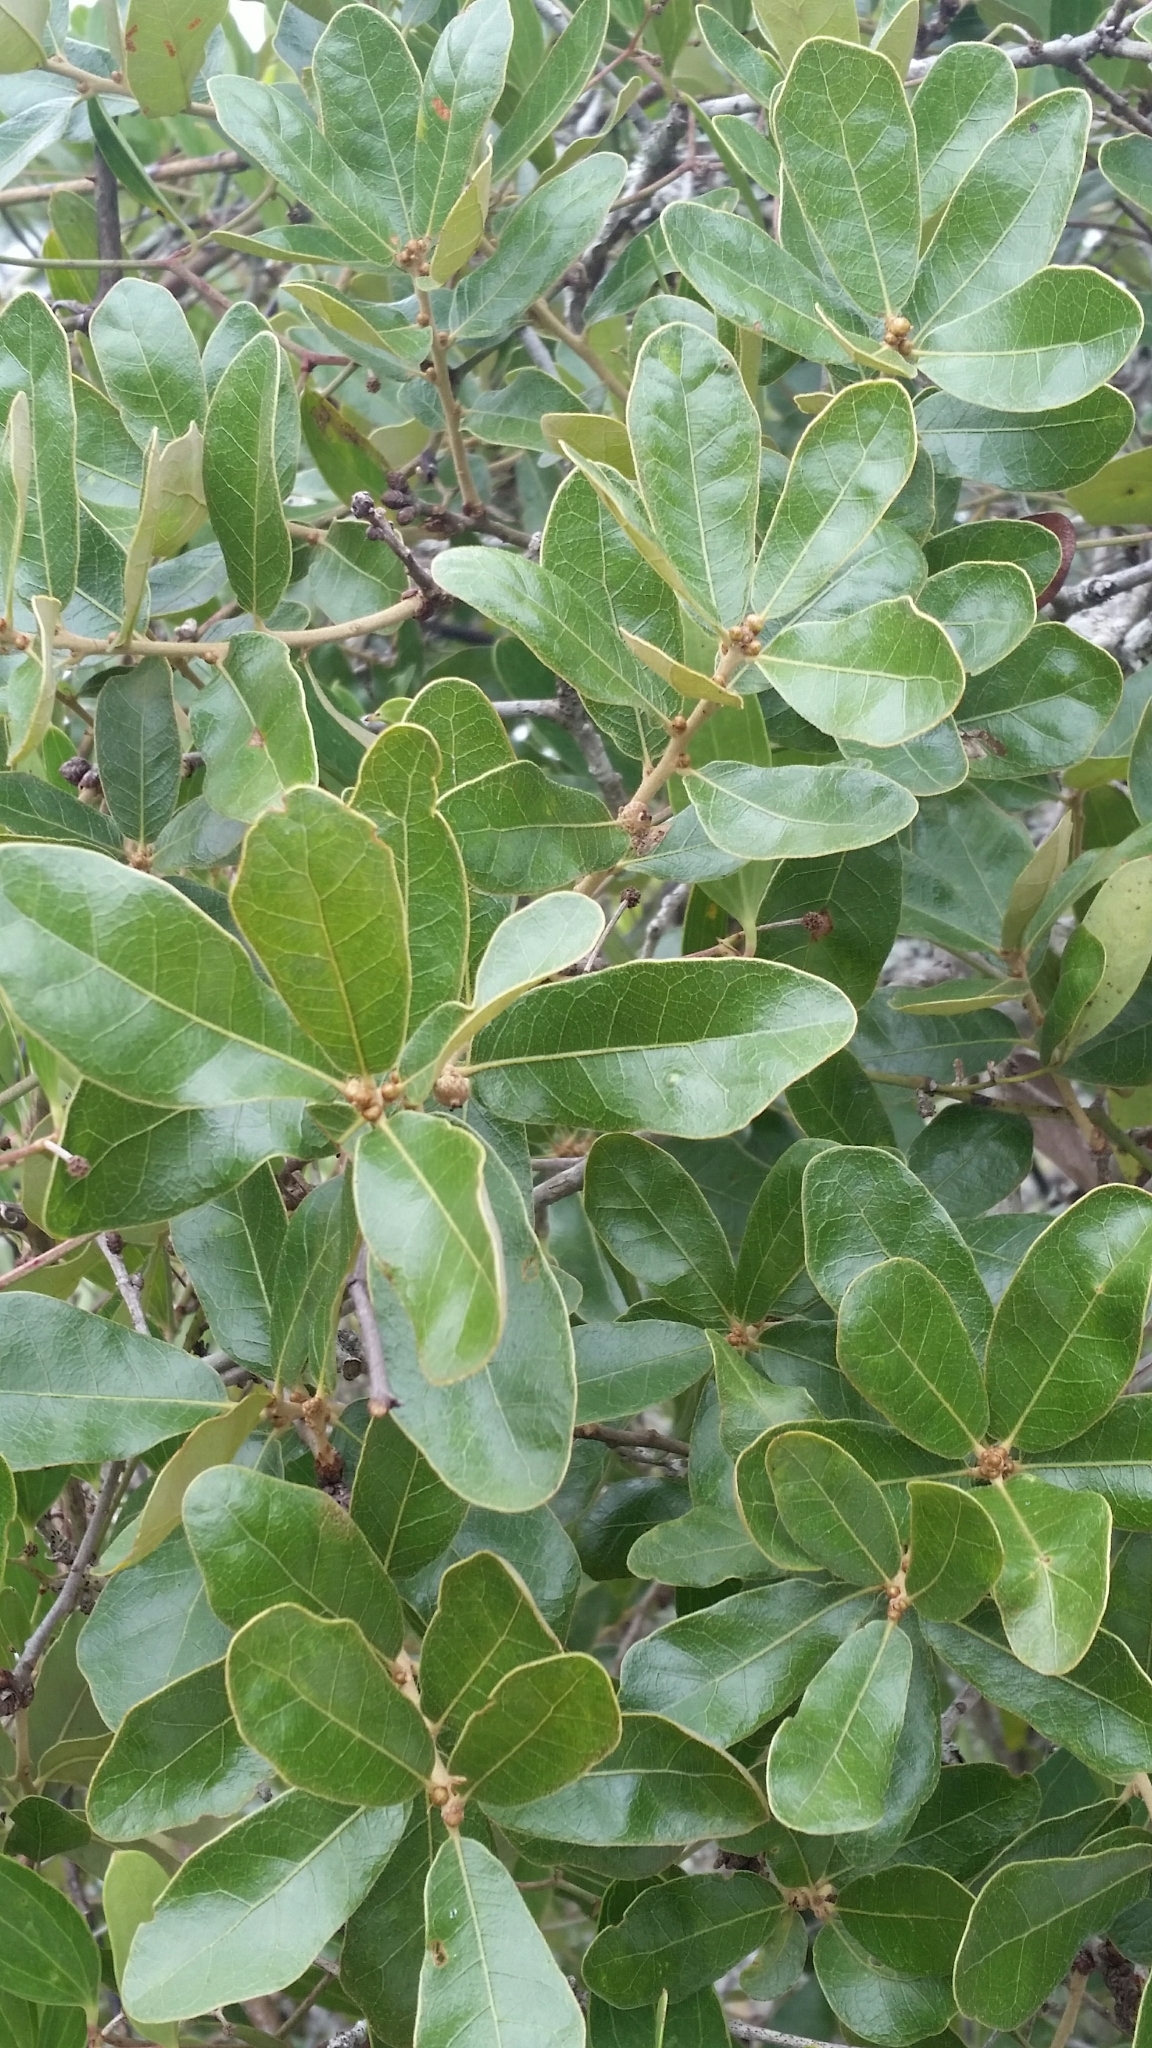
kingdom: Plantae
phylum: Tracheophyta
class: Magnoliopsida
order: Fagales
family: Fagaceae
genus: Quercus
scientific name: Quercus chapmanii
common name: Chapman oak
